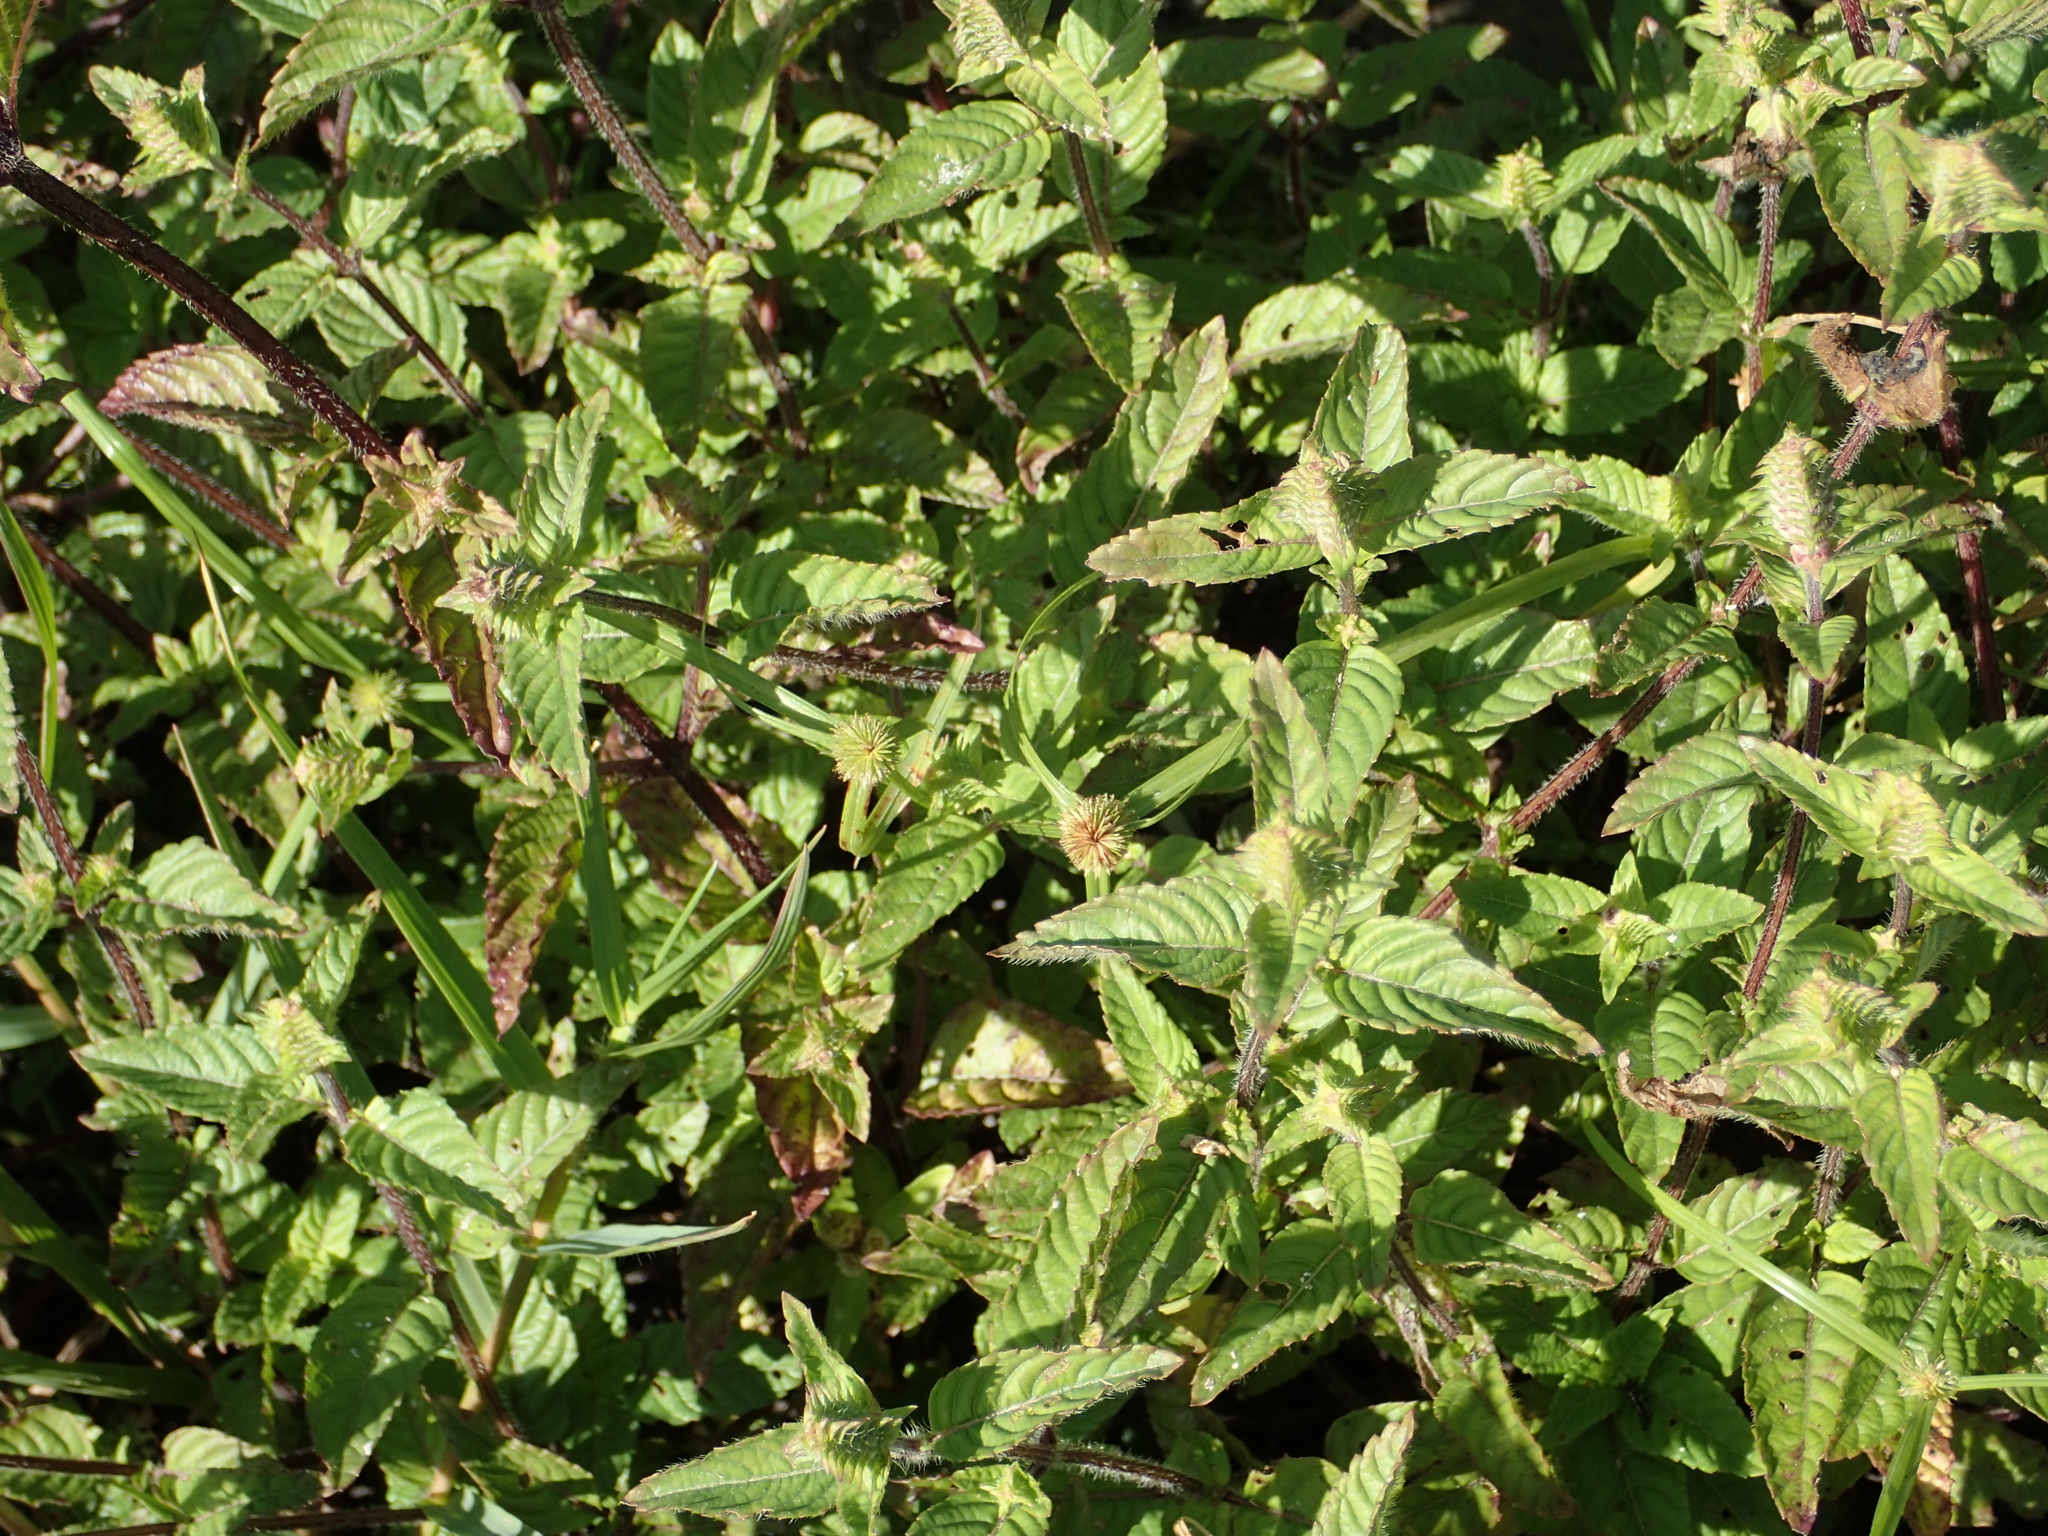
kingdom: Plantae
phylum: Tracheophyta
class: Magnoliopsida
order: Lamiales
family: Lamiaceae
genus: Platostoma
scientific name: Platostoma palustre
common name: Black cincau
